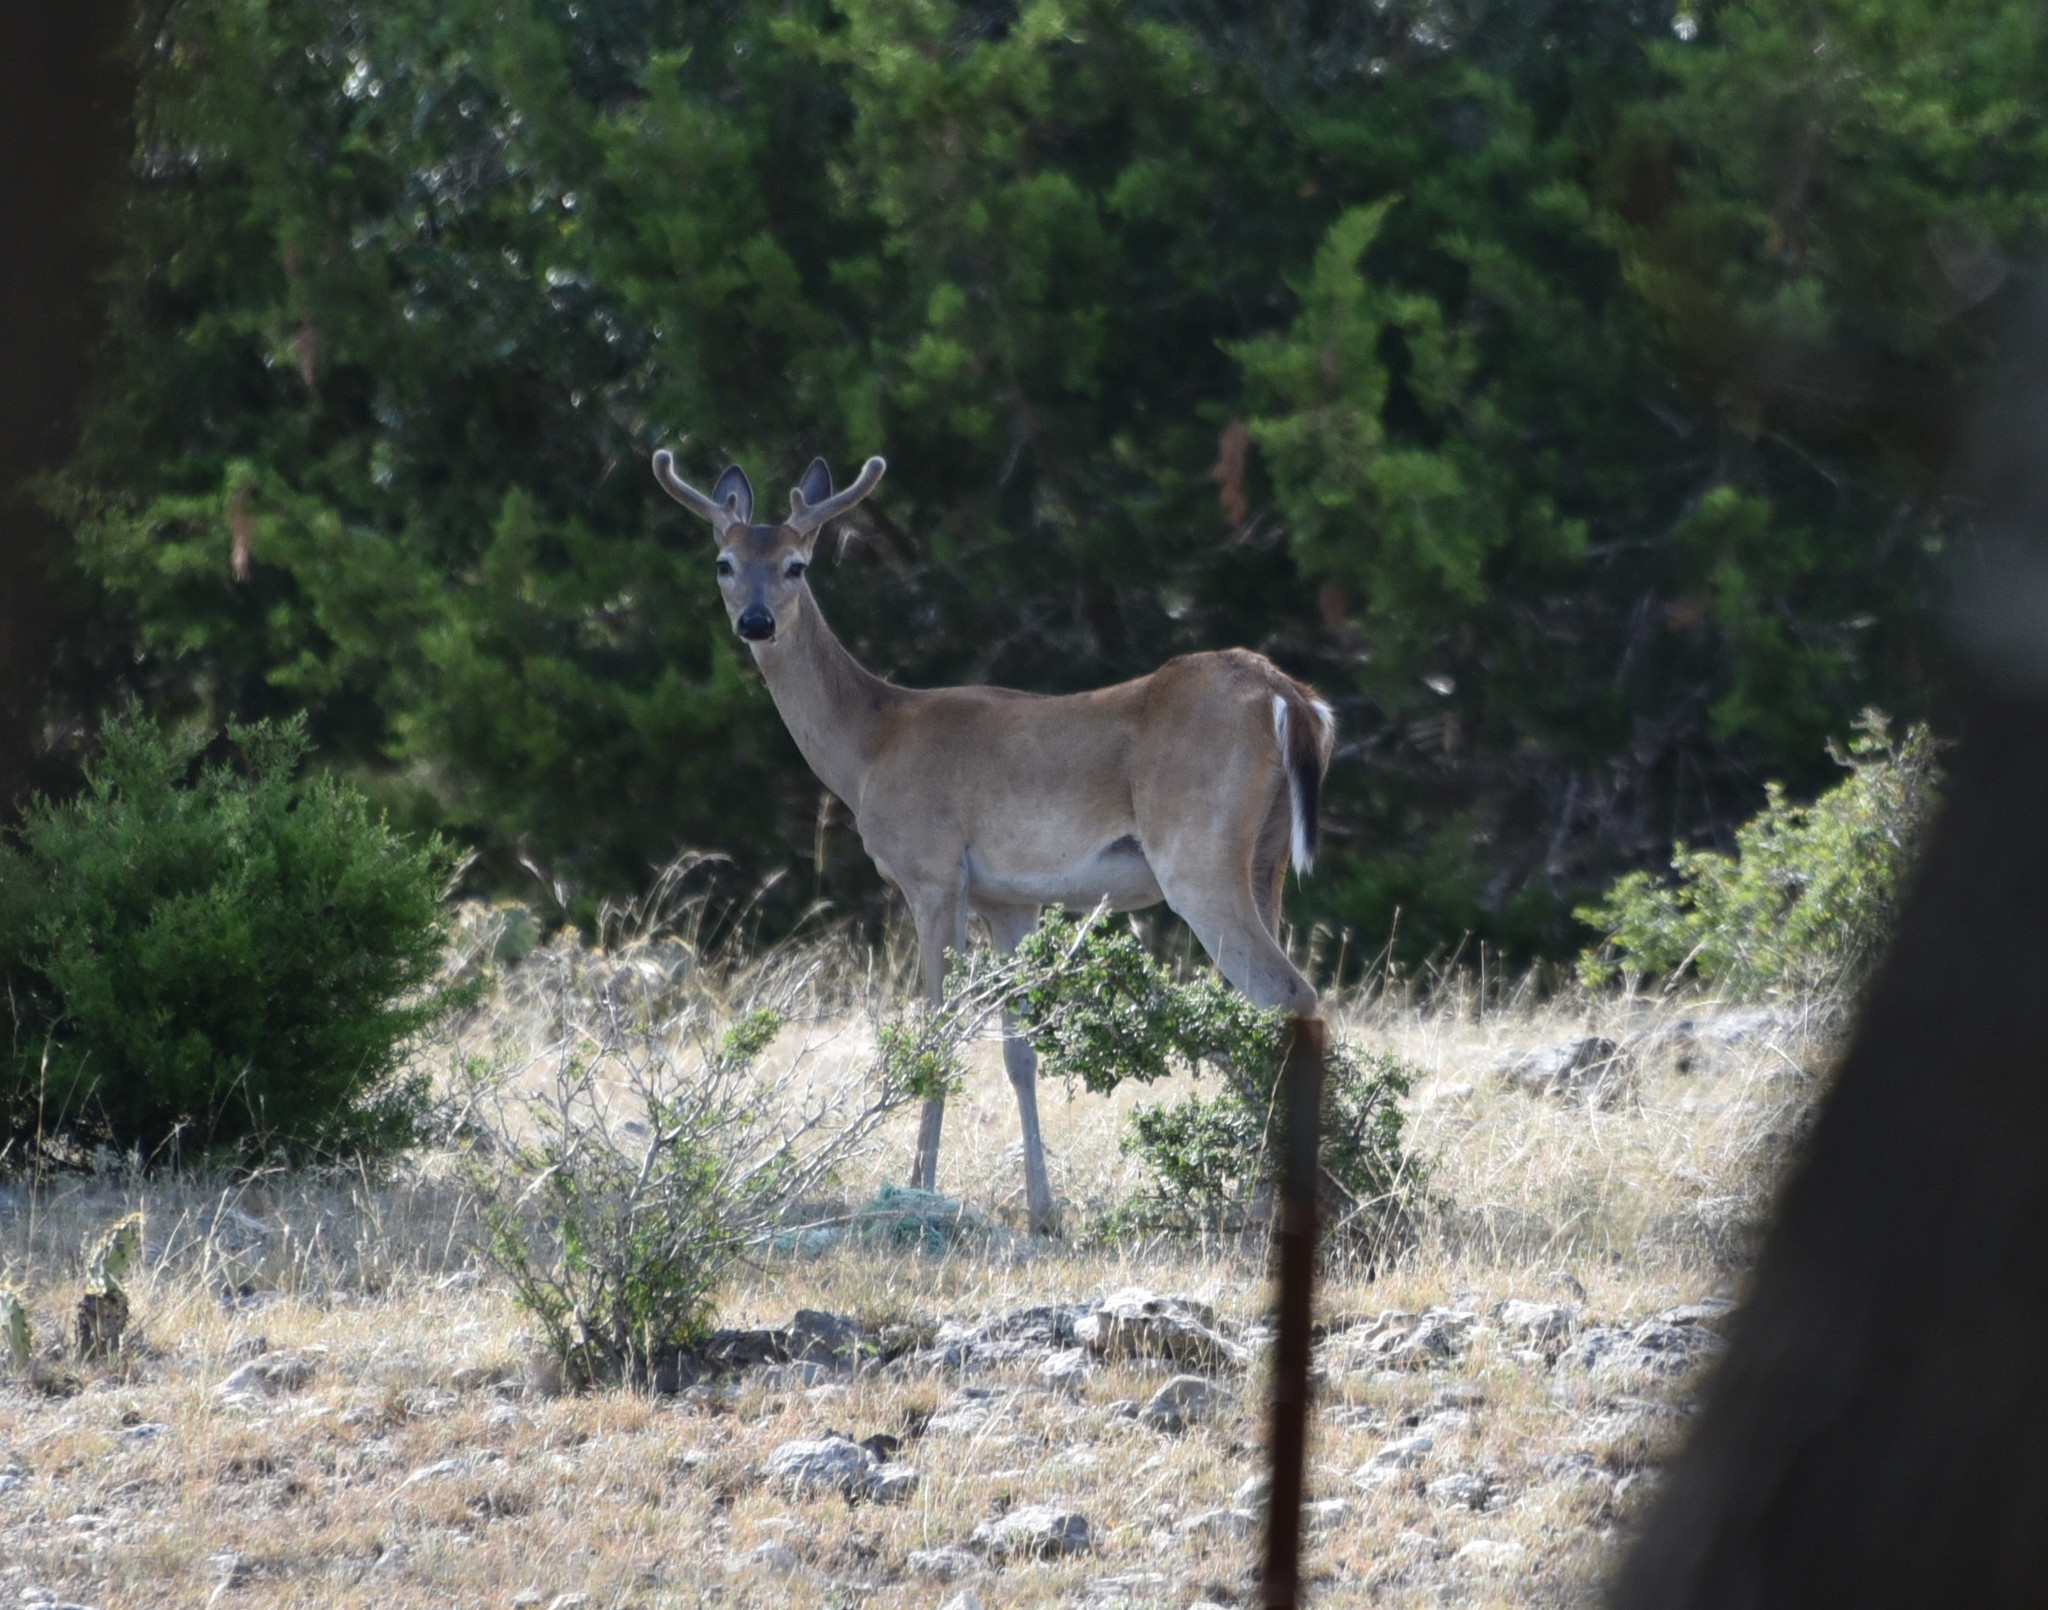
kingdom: Animalia
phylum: Chordata
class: Mammalia
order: Artiodactyla
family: Cervidae
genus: Odocoileus
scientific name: Odocoileus virginianus
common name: White-tailed deer
